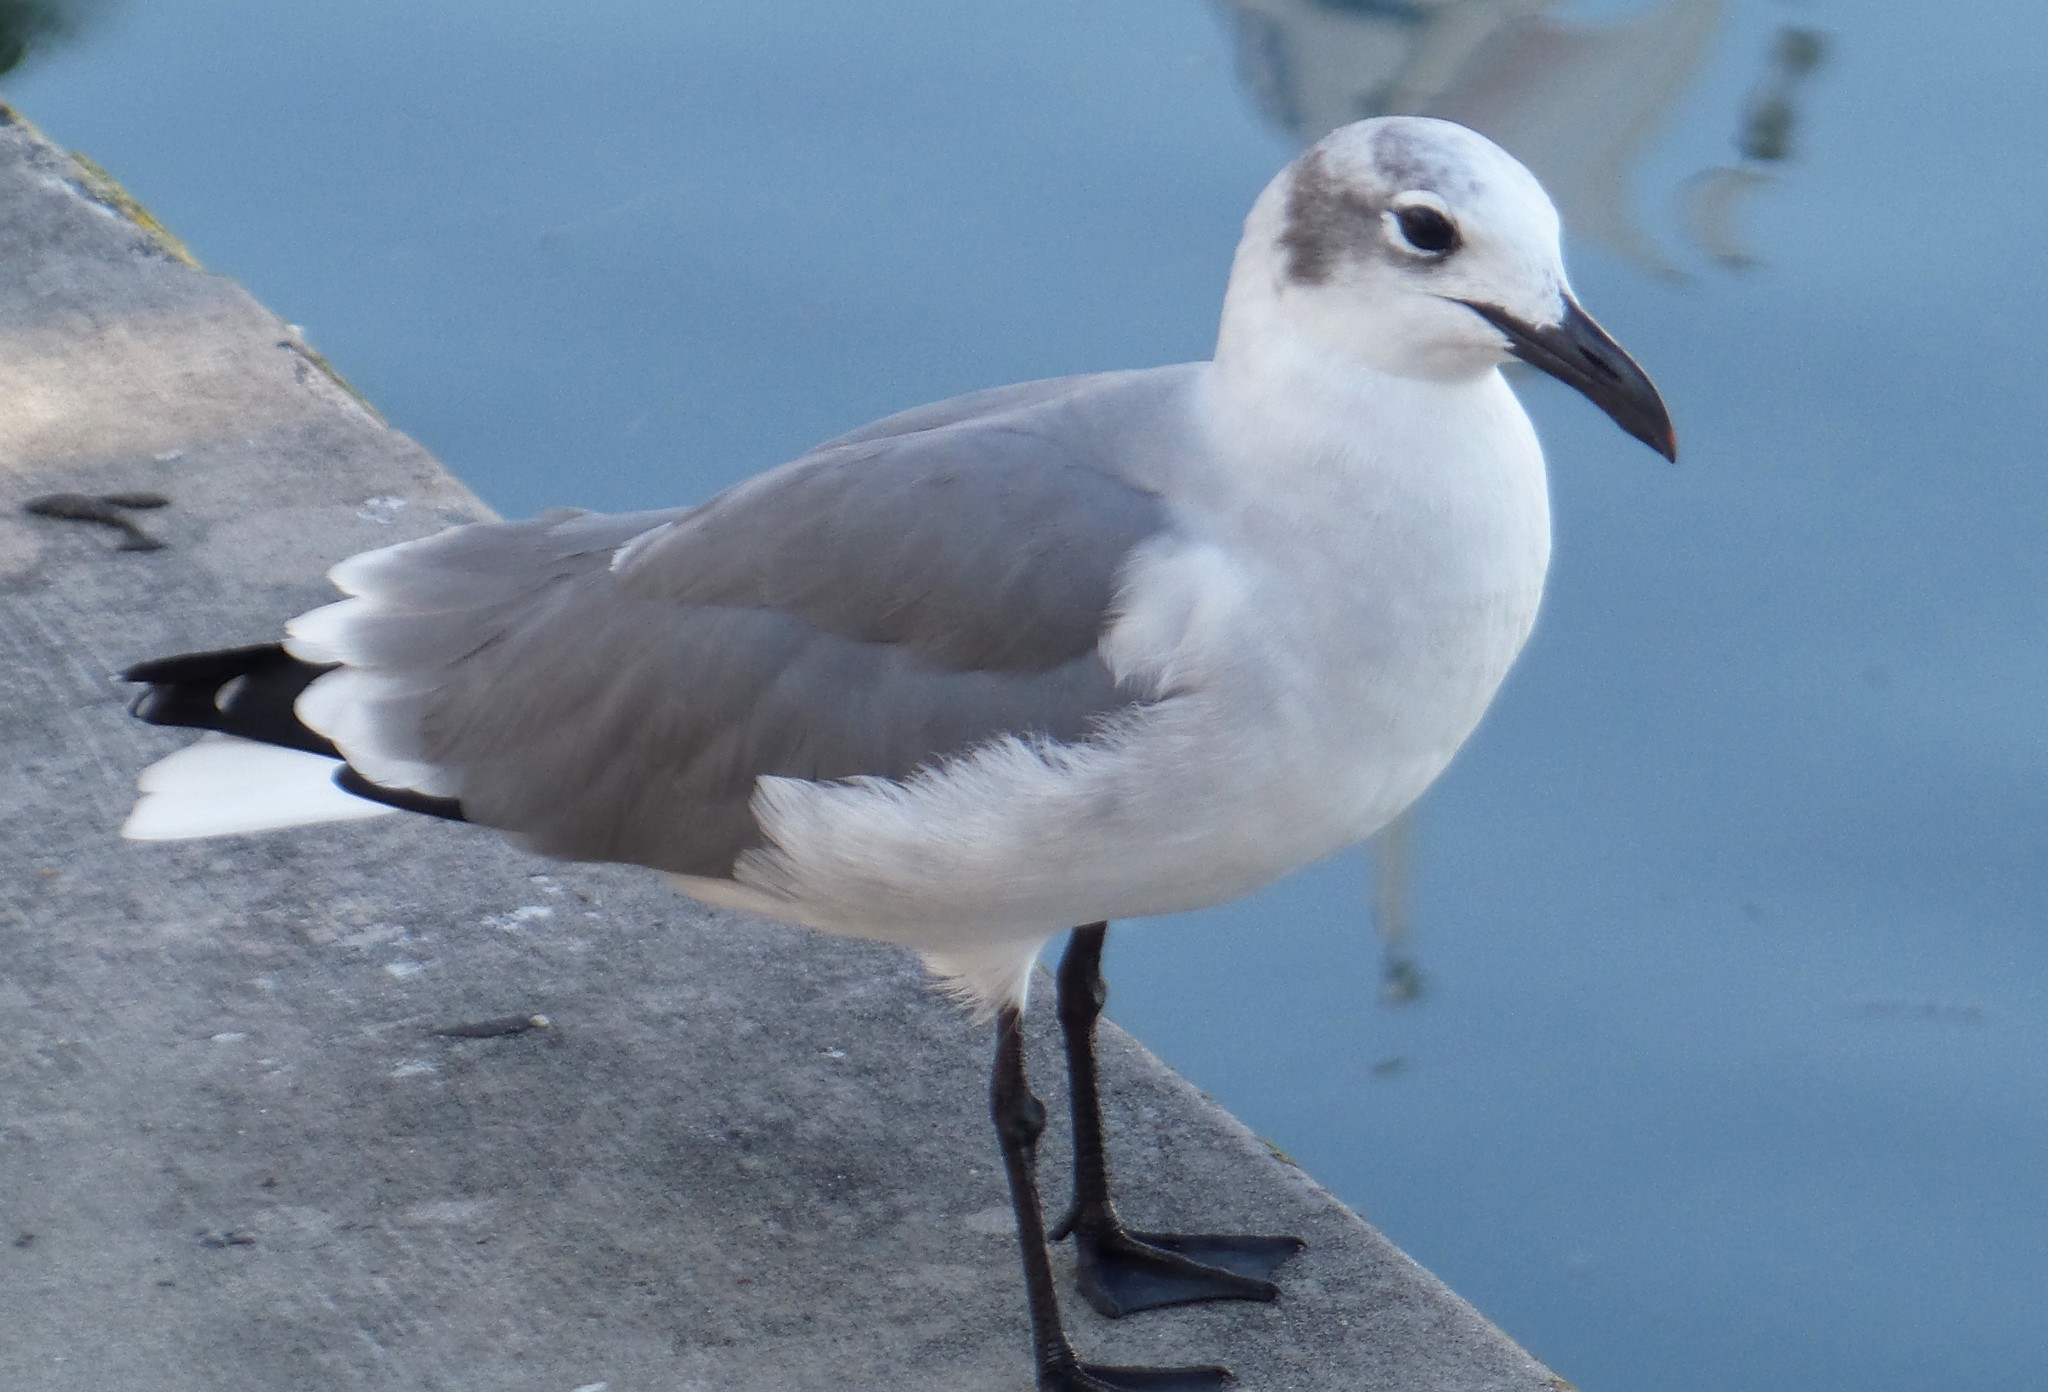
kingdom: Animalia
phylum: Chordata
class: Aves
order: Charadriiformes
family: Laridae
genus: Leucophaeus
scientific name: Leucophaeus atricilla
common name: Laughing gull
